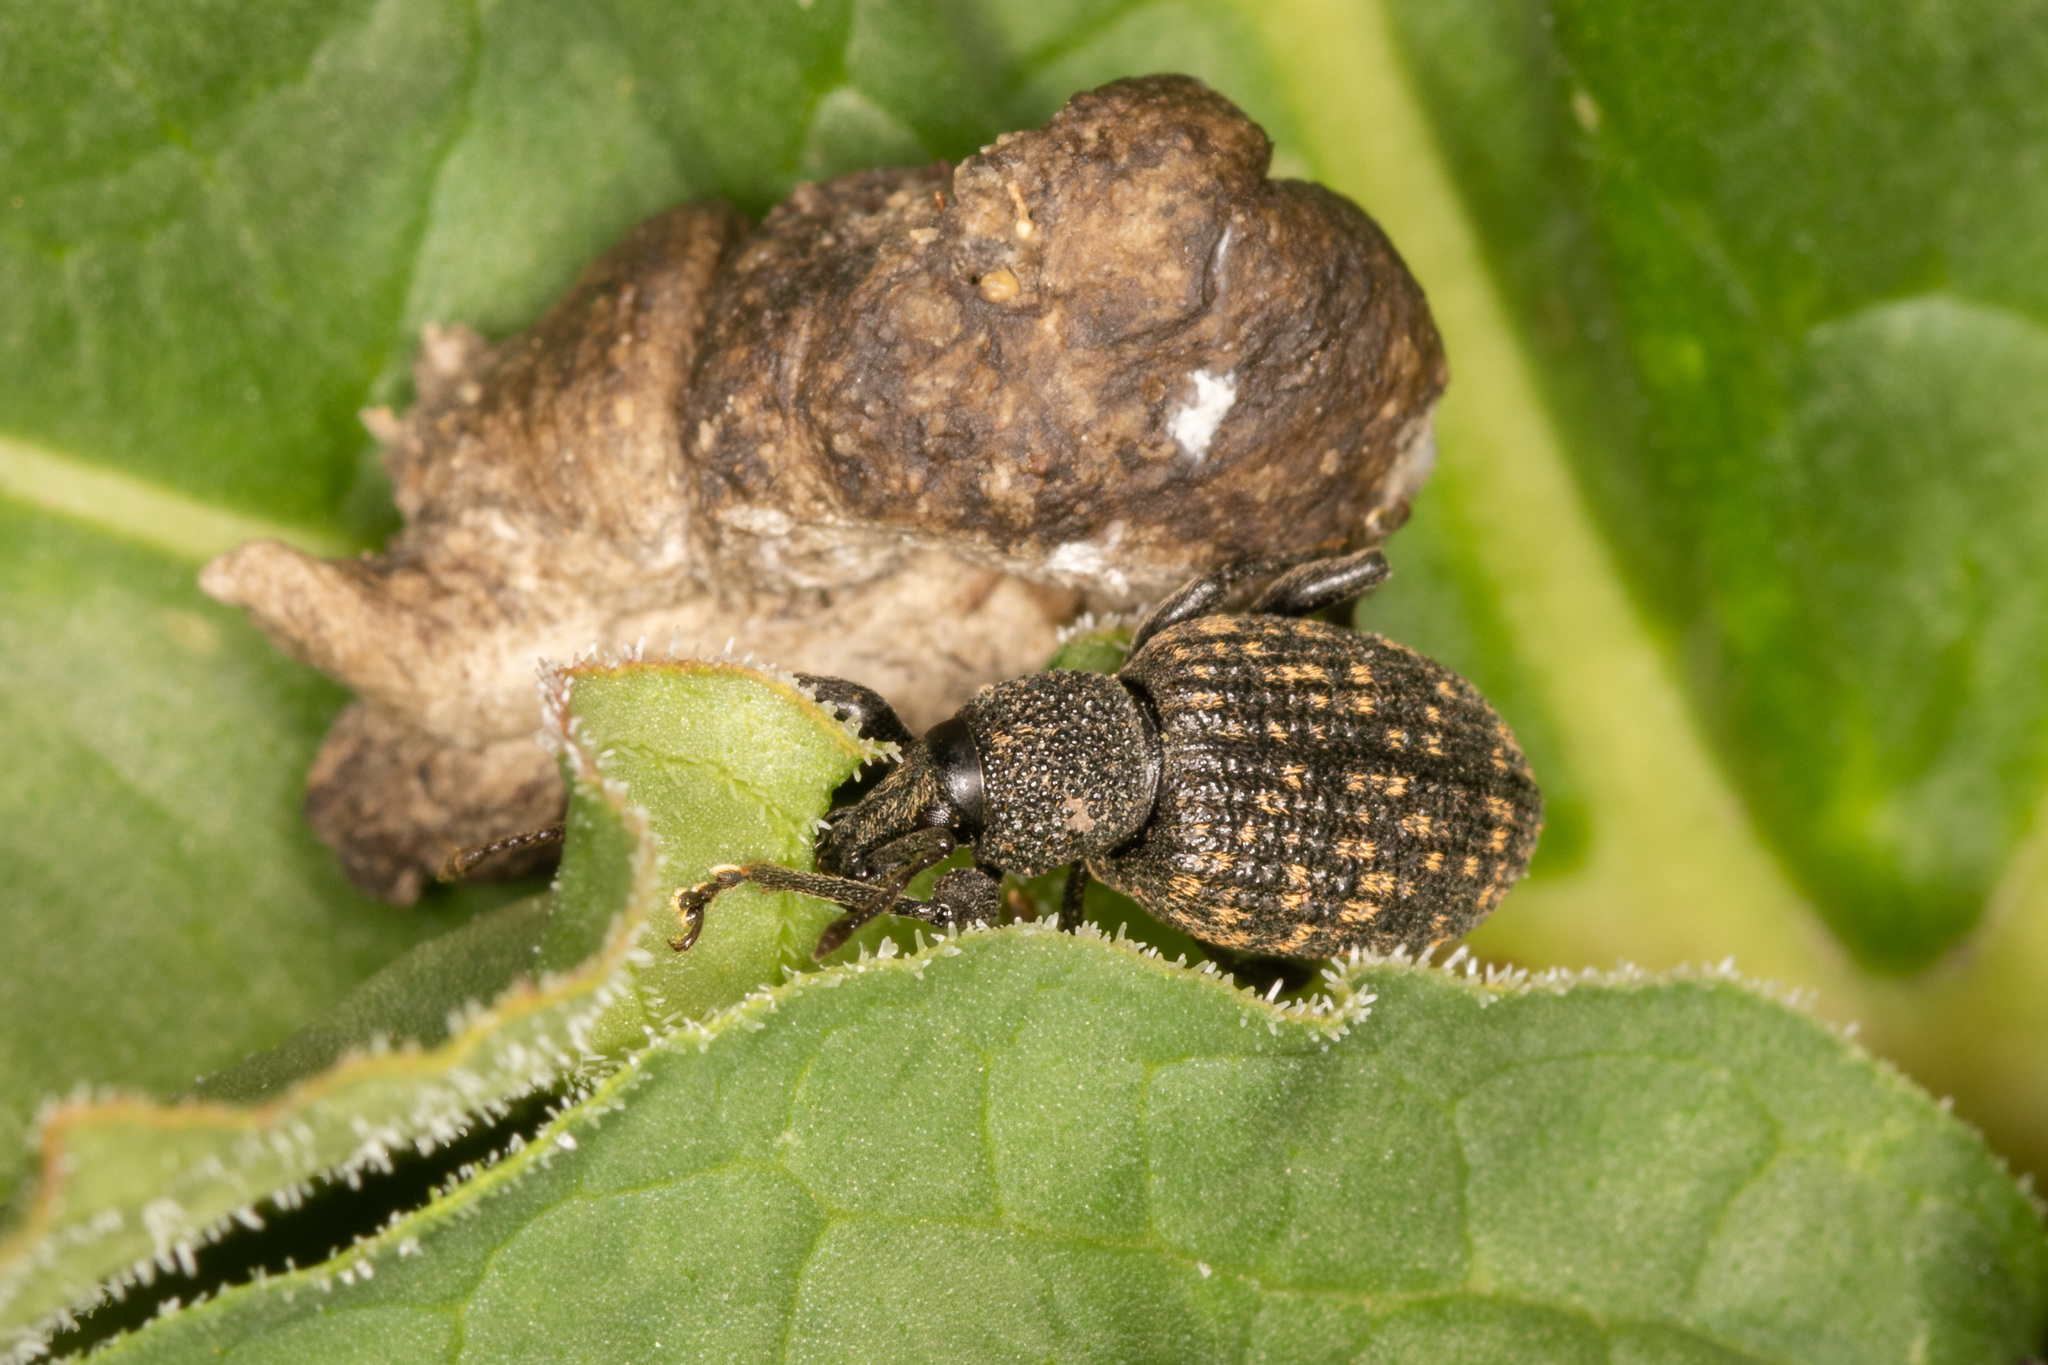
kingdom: Animalia
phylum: Arthropoda
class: Insecta
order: Coleoptera
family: Curculionidae
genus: Otiorhynchus
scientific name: Otiorhynchus sulcatus
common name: Black vine weevil
